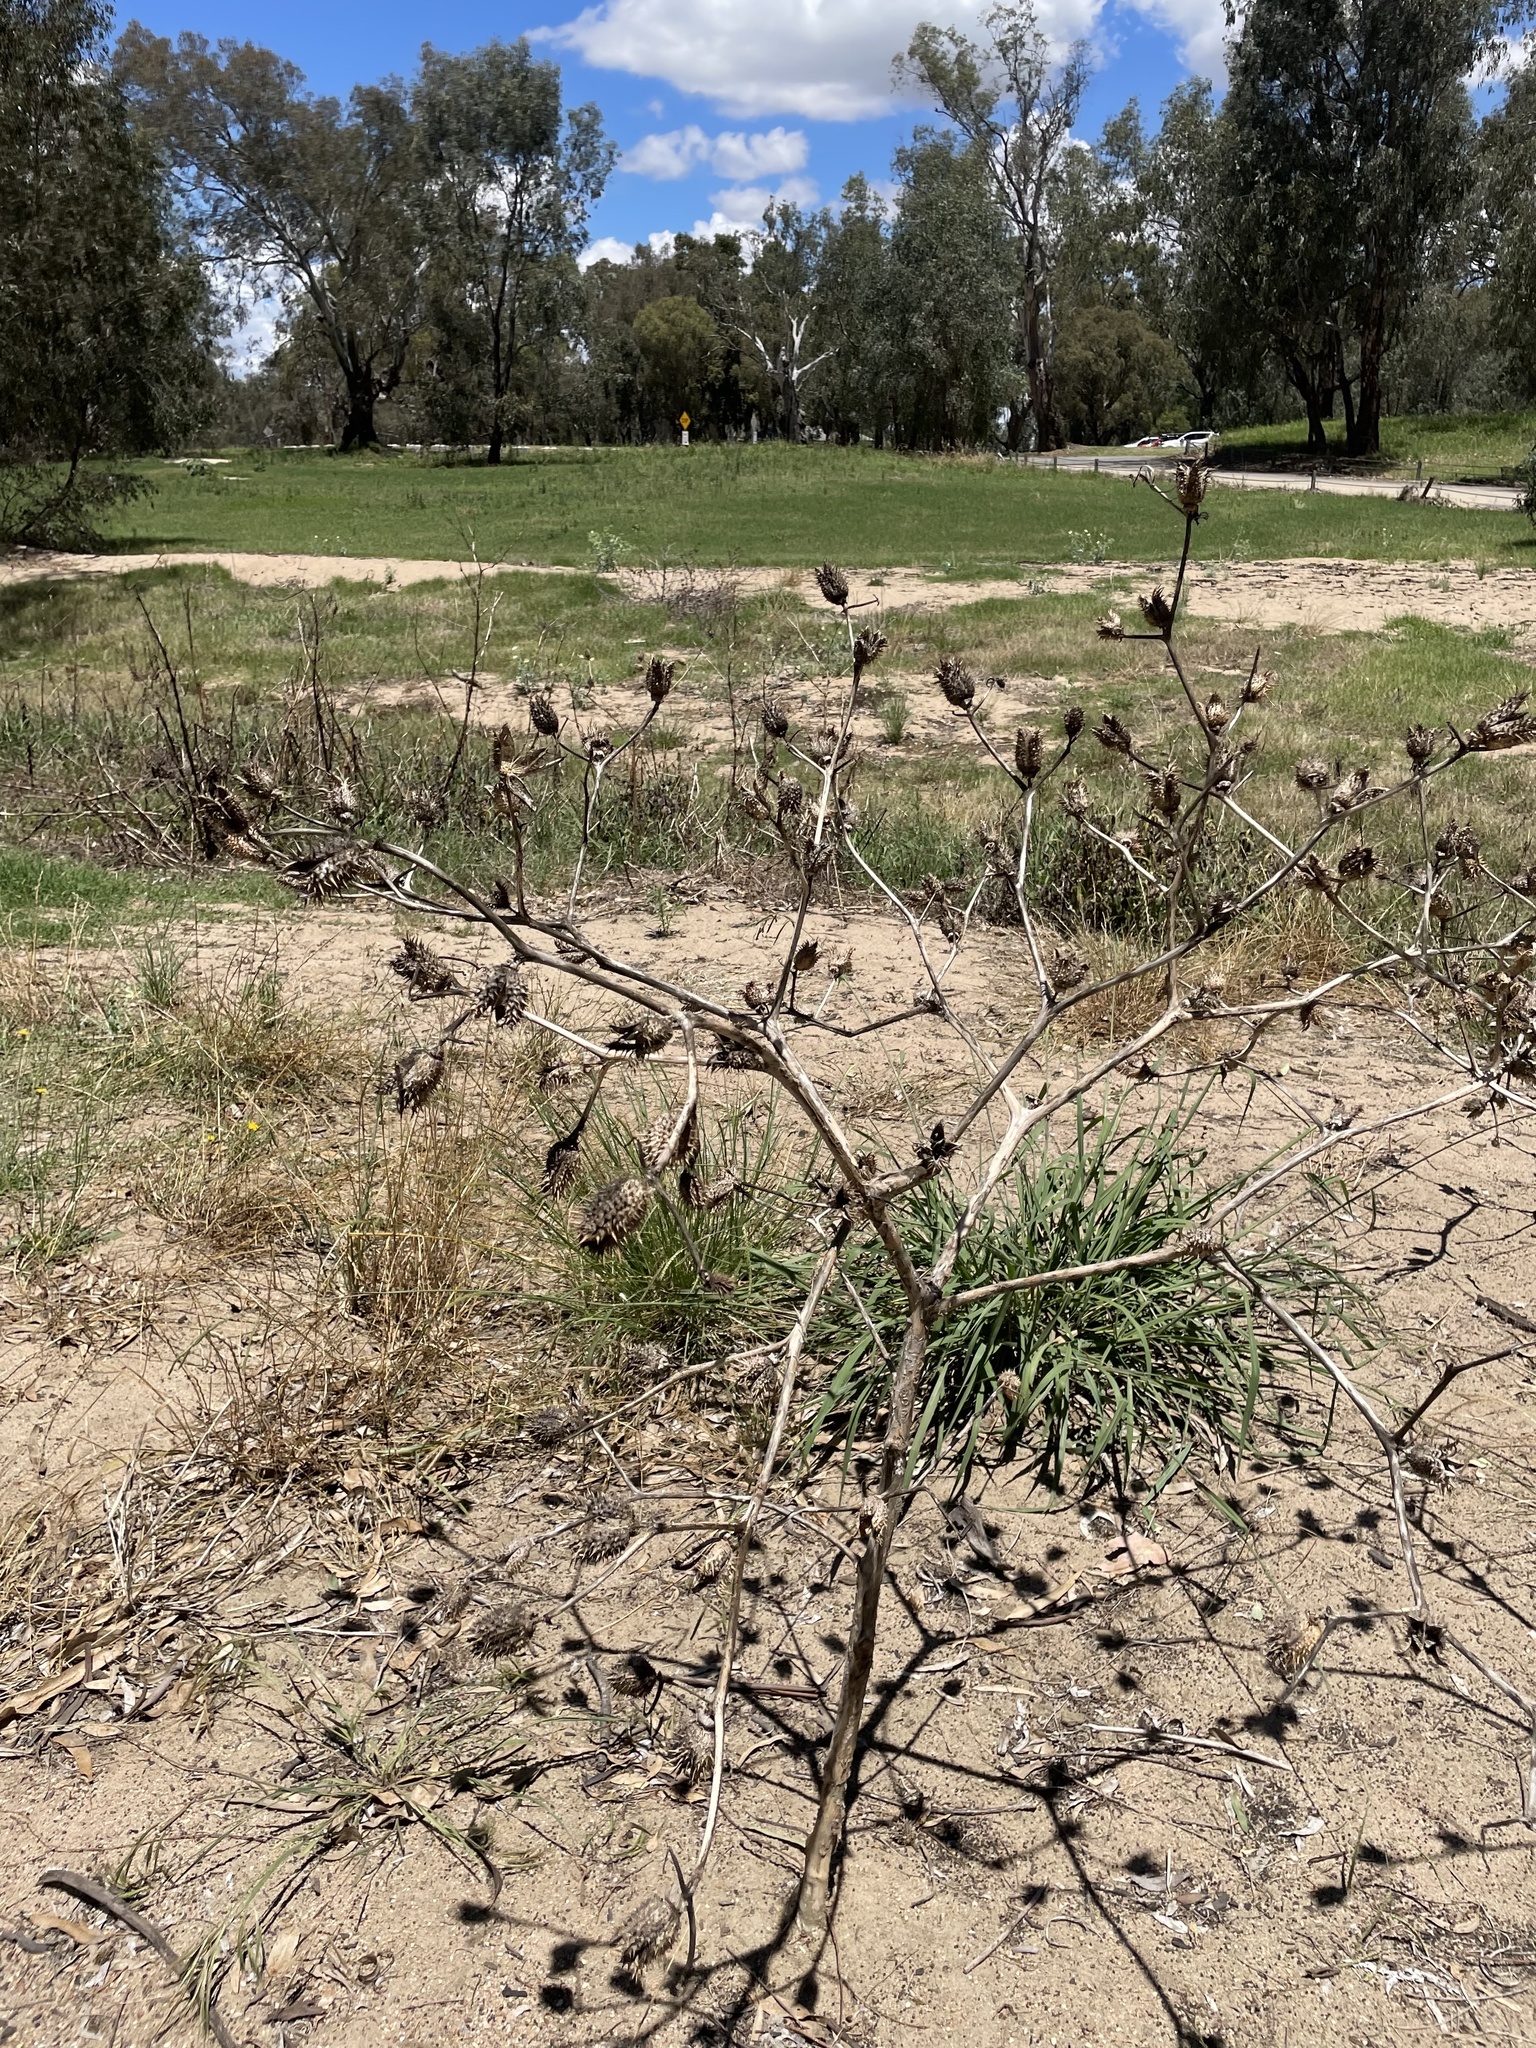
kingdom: Plantae
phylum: Tracheophyta
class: Magnoliopsida
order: Solanales
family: Solanaceae
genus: Datura
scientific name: Datura stramonium
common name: Thorn-apple
